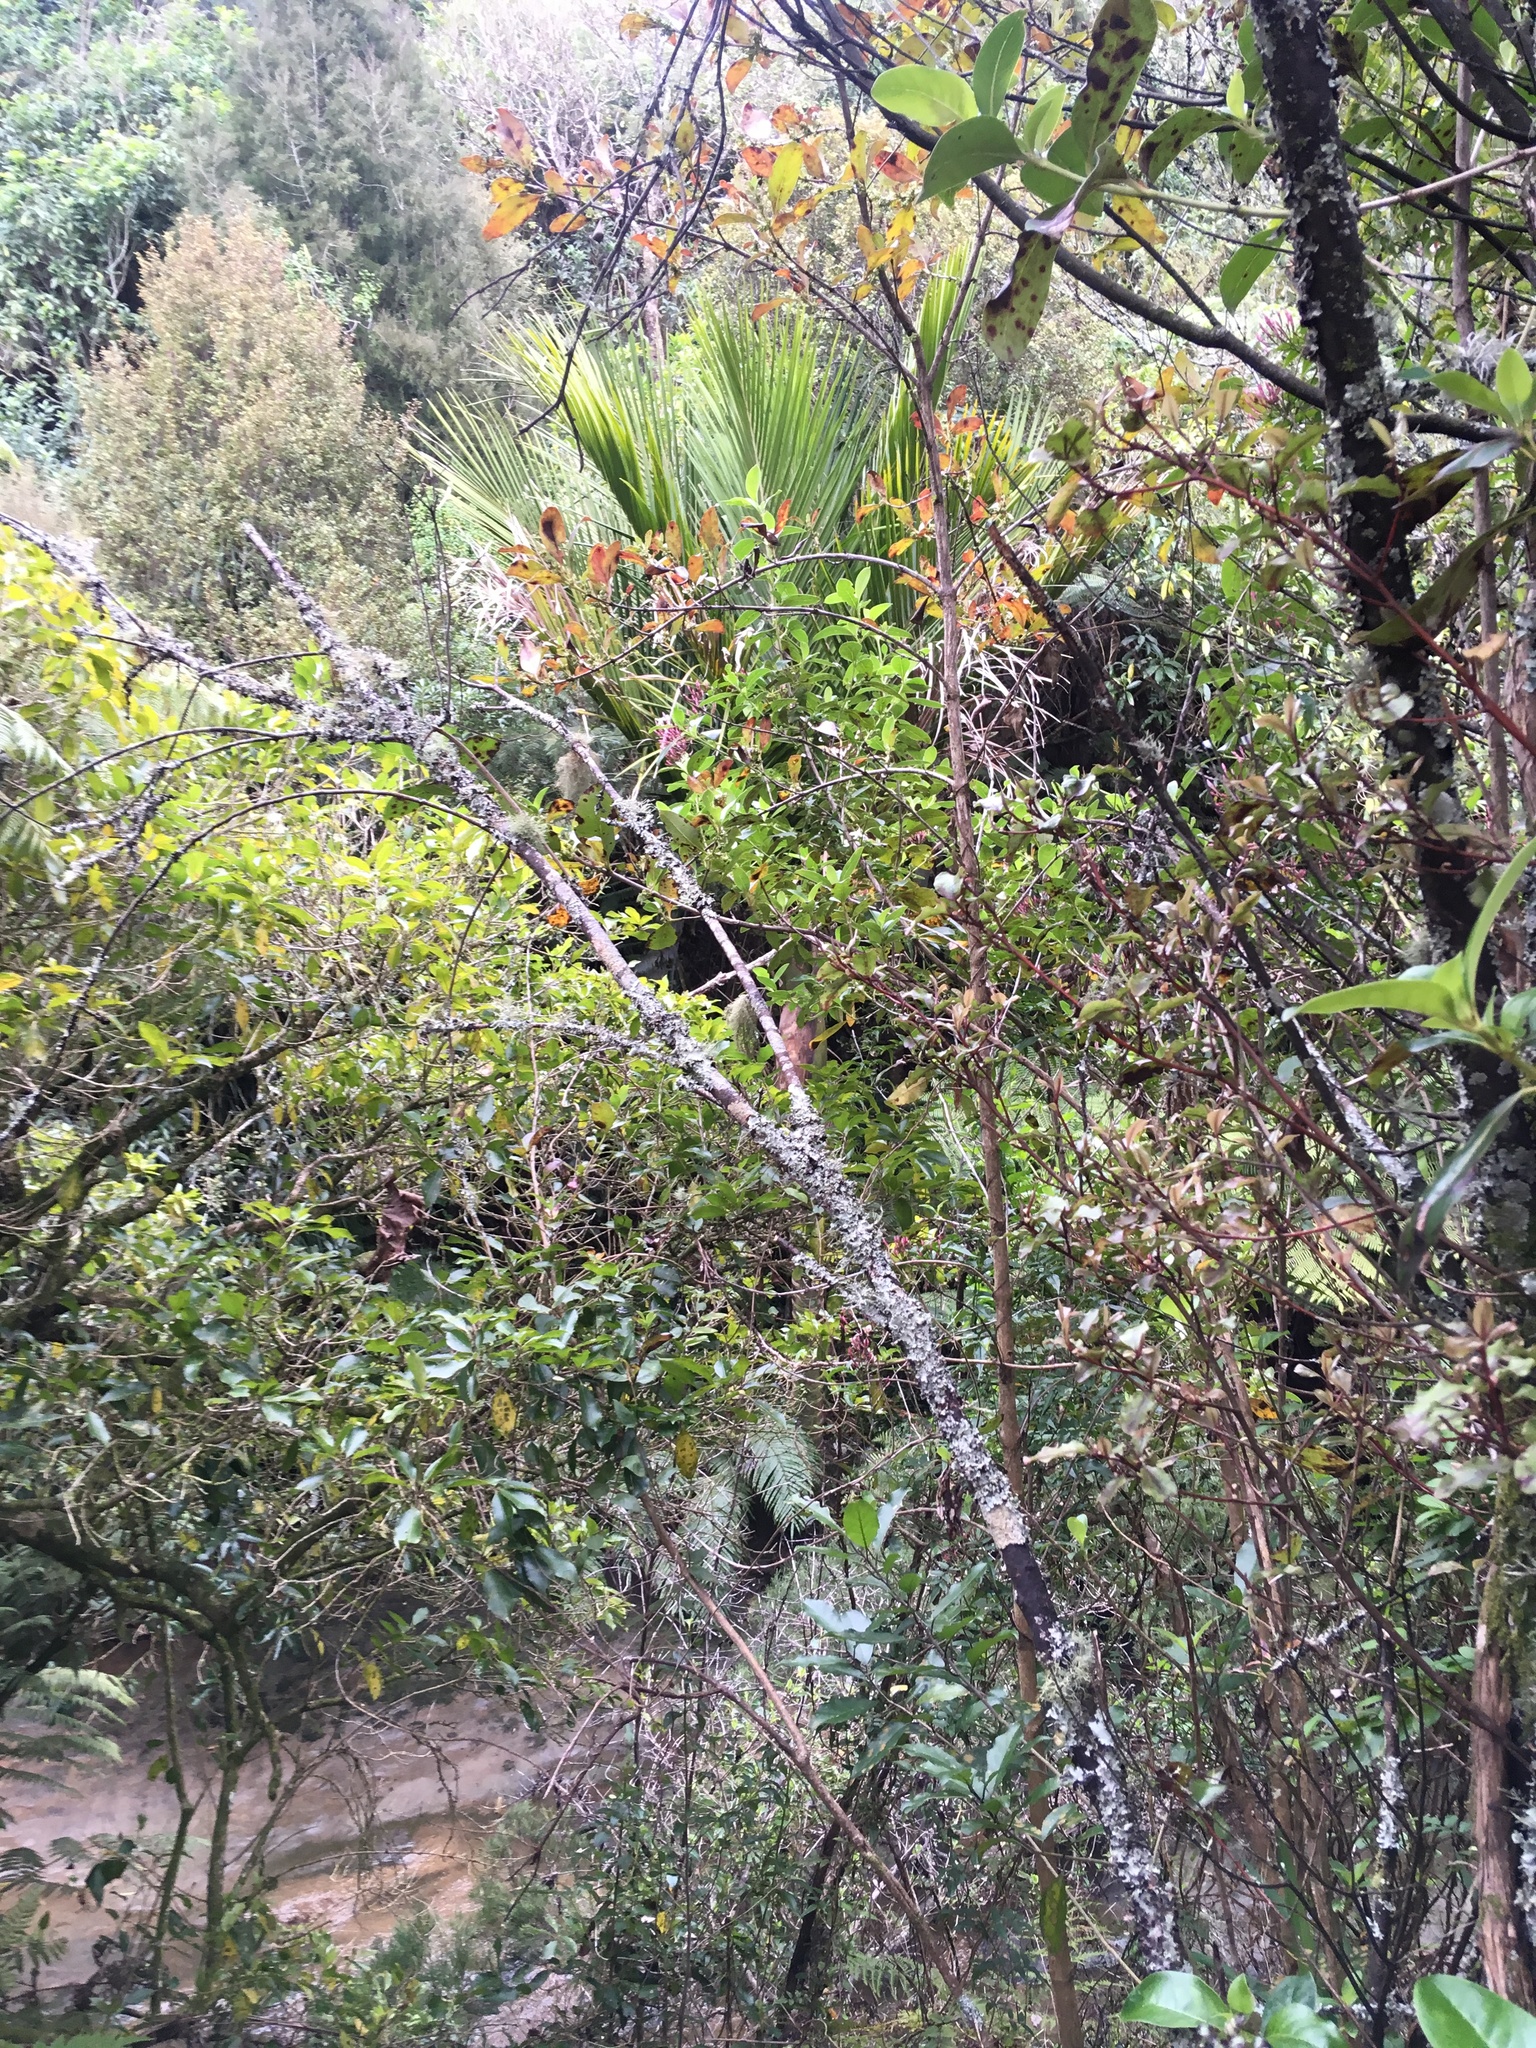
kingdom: Plantae
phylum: Tracheophyta
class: Liliopsida
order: Arecales
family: Arecaceae
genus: Rhopalostylis
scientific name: Rhopalostylis sapida
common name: Feather-duster palm
